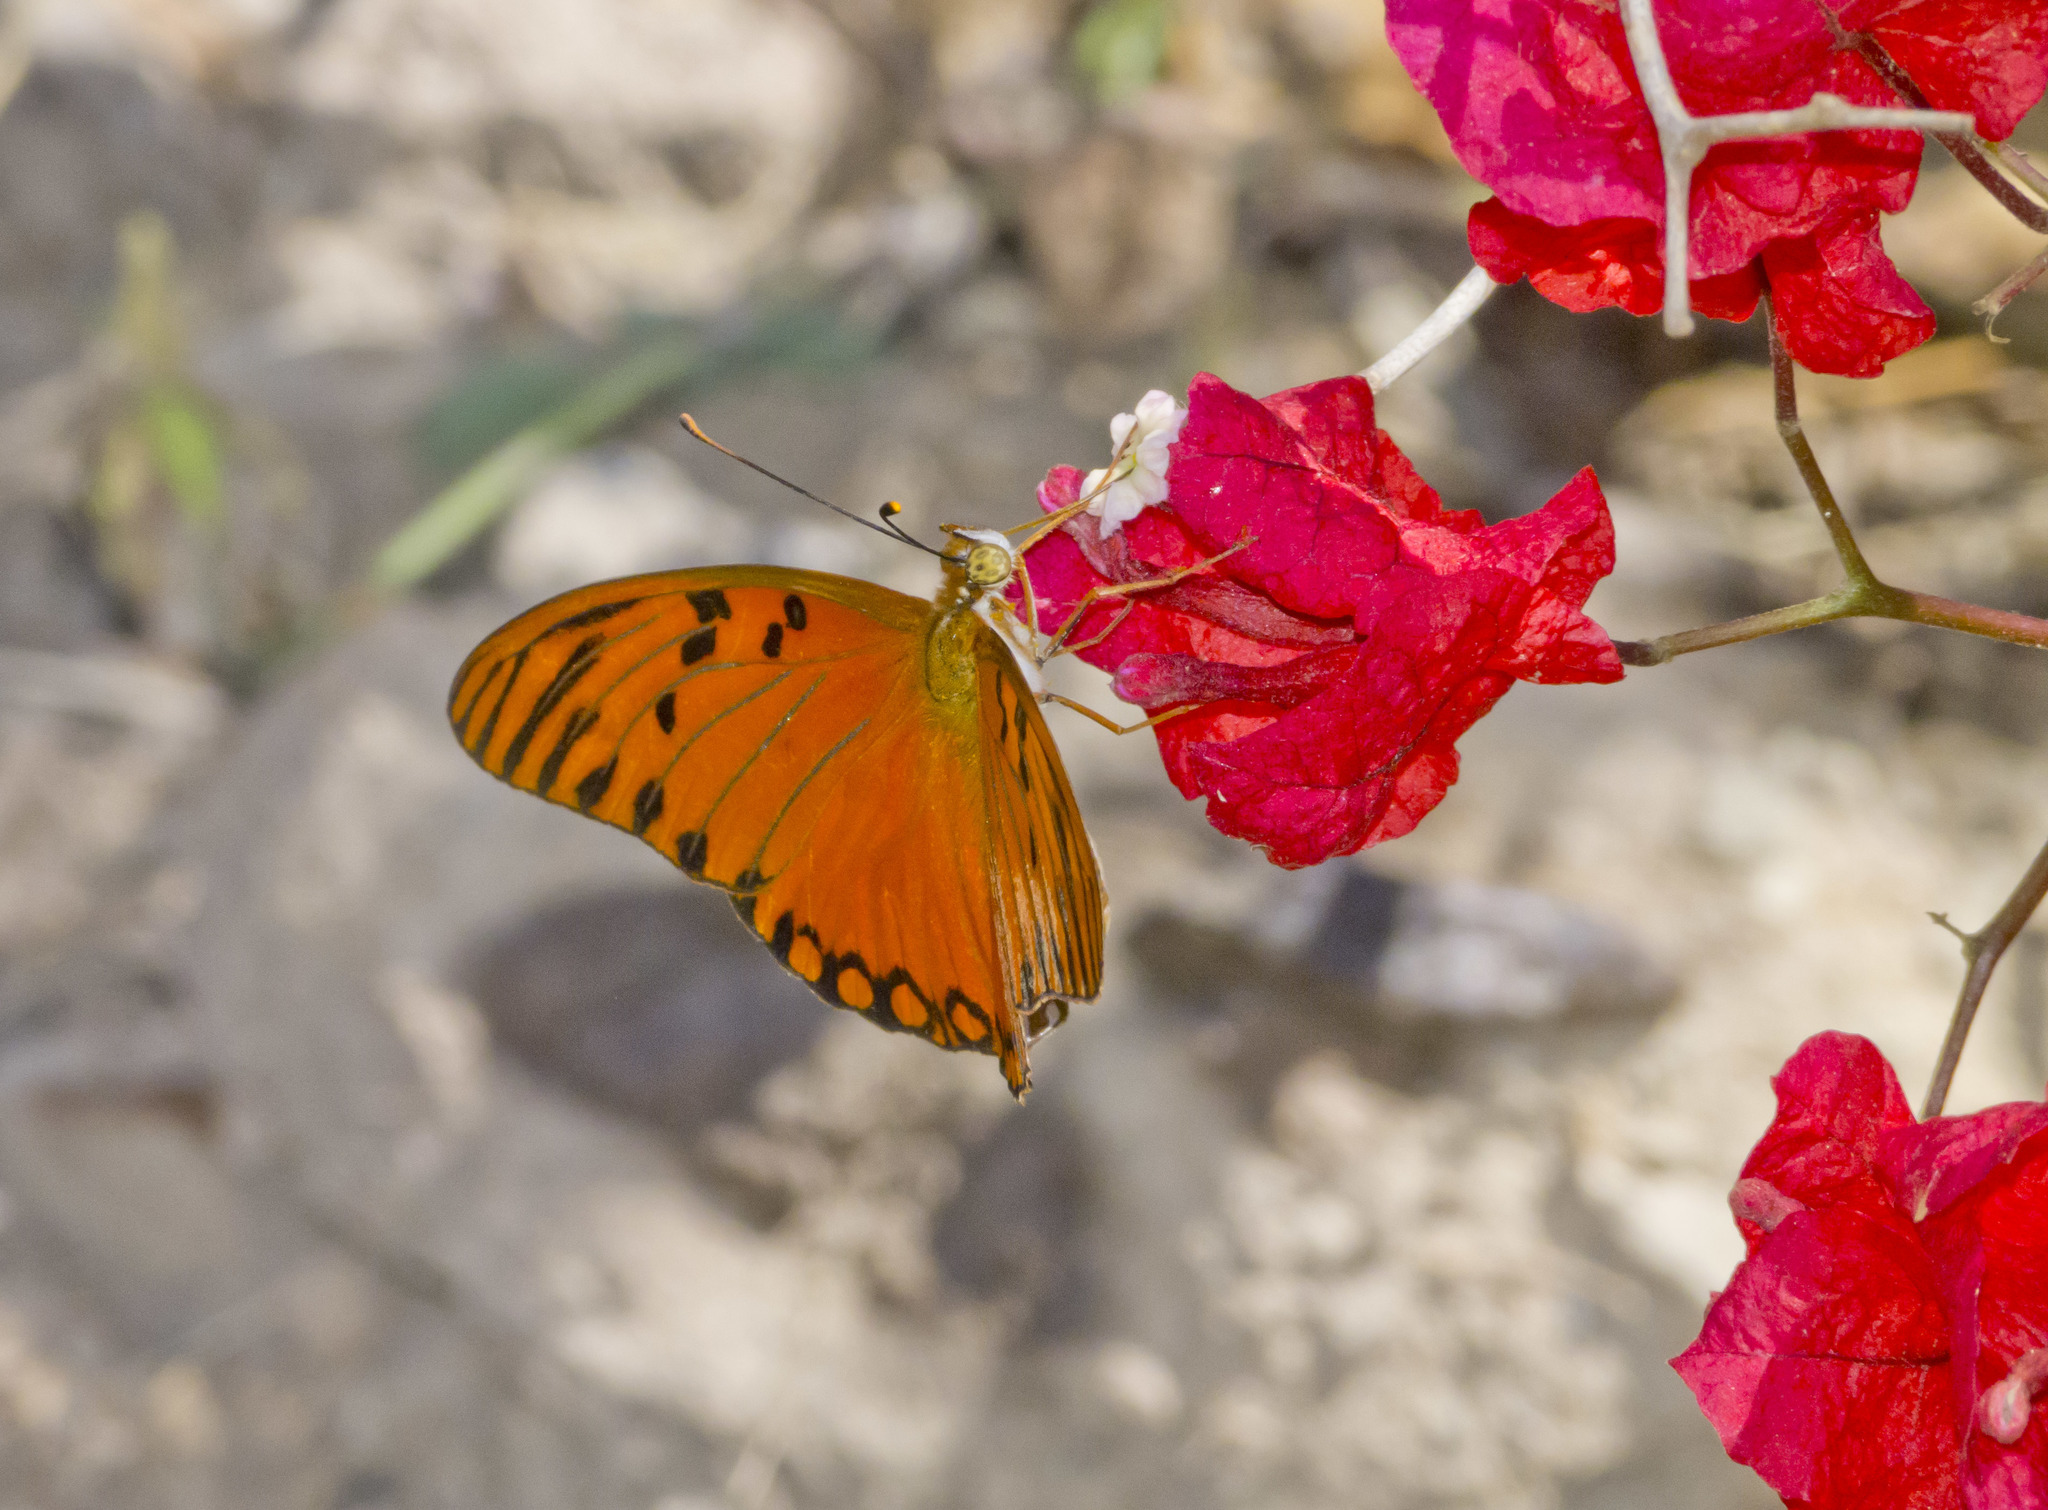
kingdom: Animalia
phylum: Arthropoda
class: Insecta
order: Lepidoptera
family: Nymphalidae
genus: Dione
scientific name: Dione vanillae
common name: Gulf fritillary
